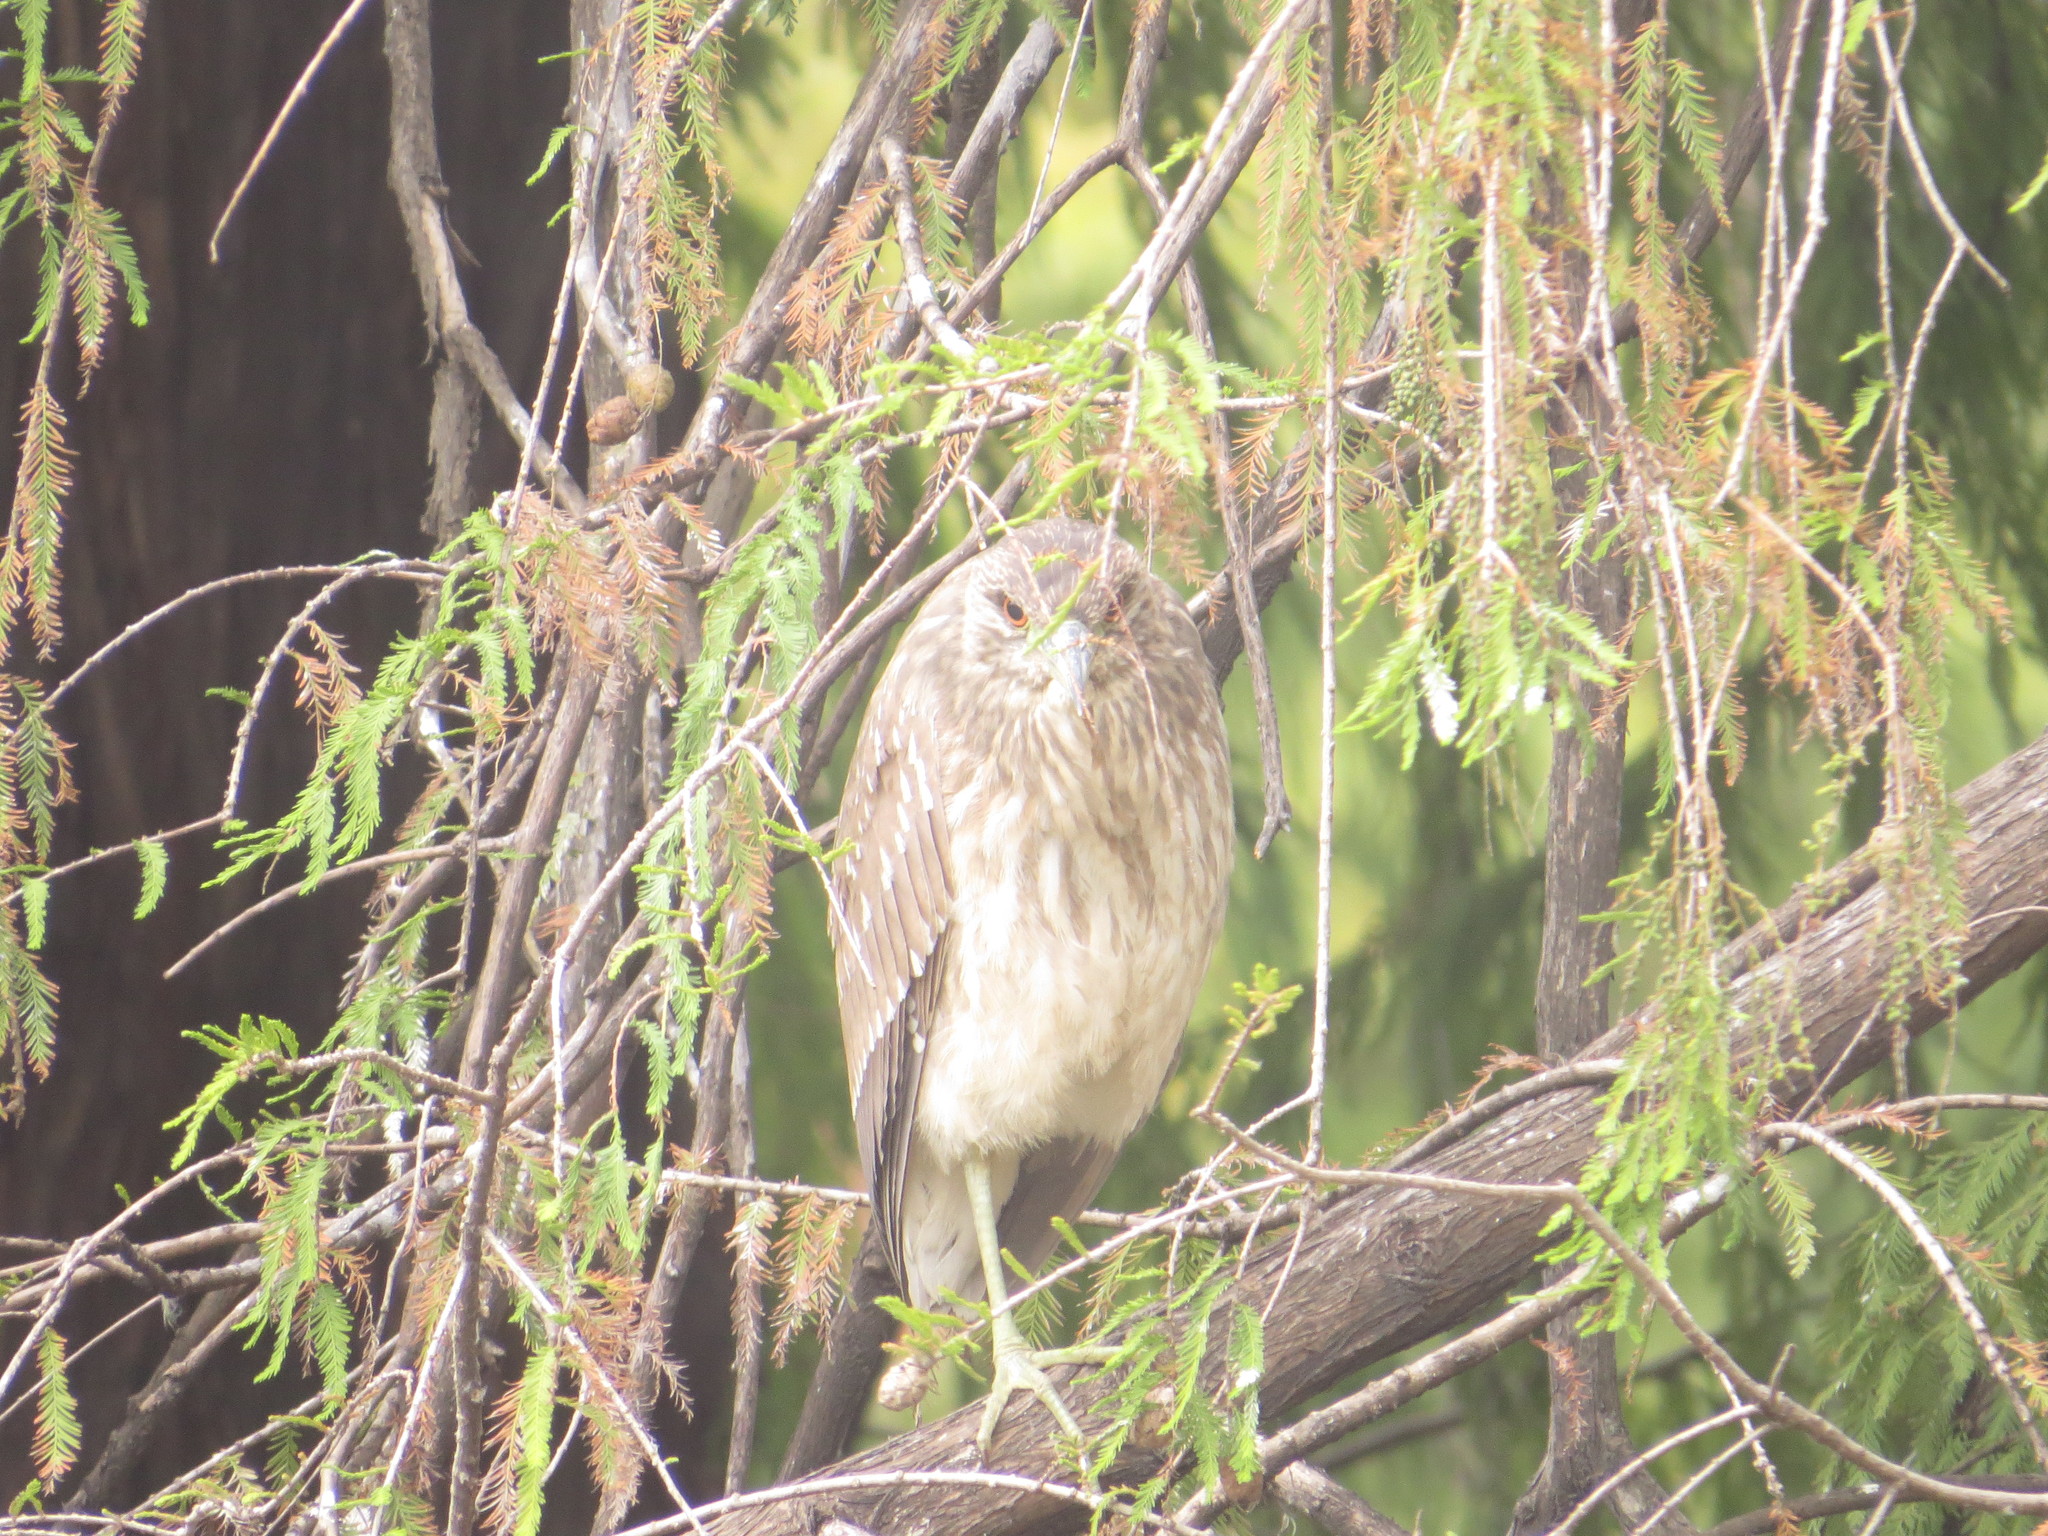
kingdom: Animalia
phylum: Chordata
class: Aves
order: Pelecaniformes
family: Ardeidae
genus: Nycticorax
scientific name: Nycticorax nycticorax
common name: Black-crowned night heron
